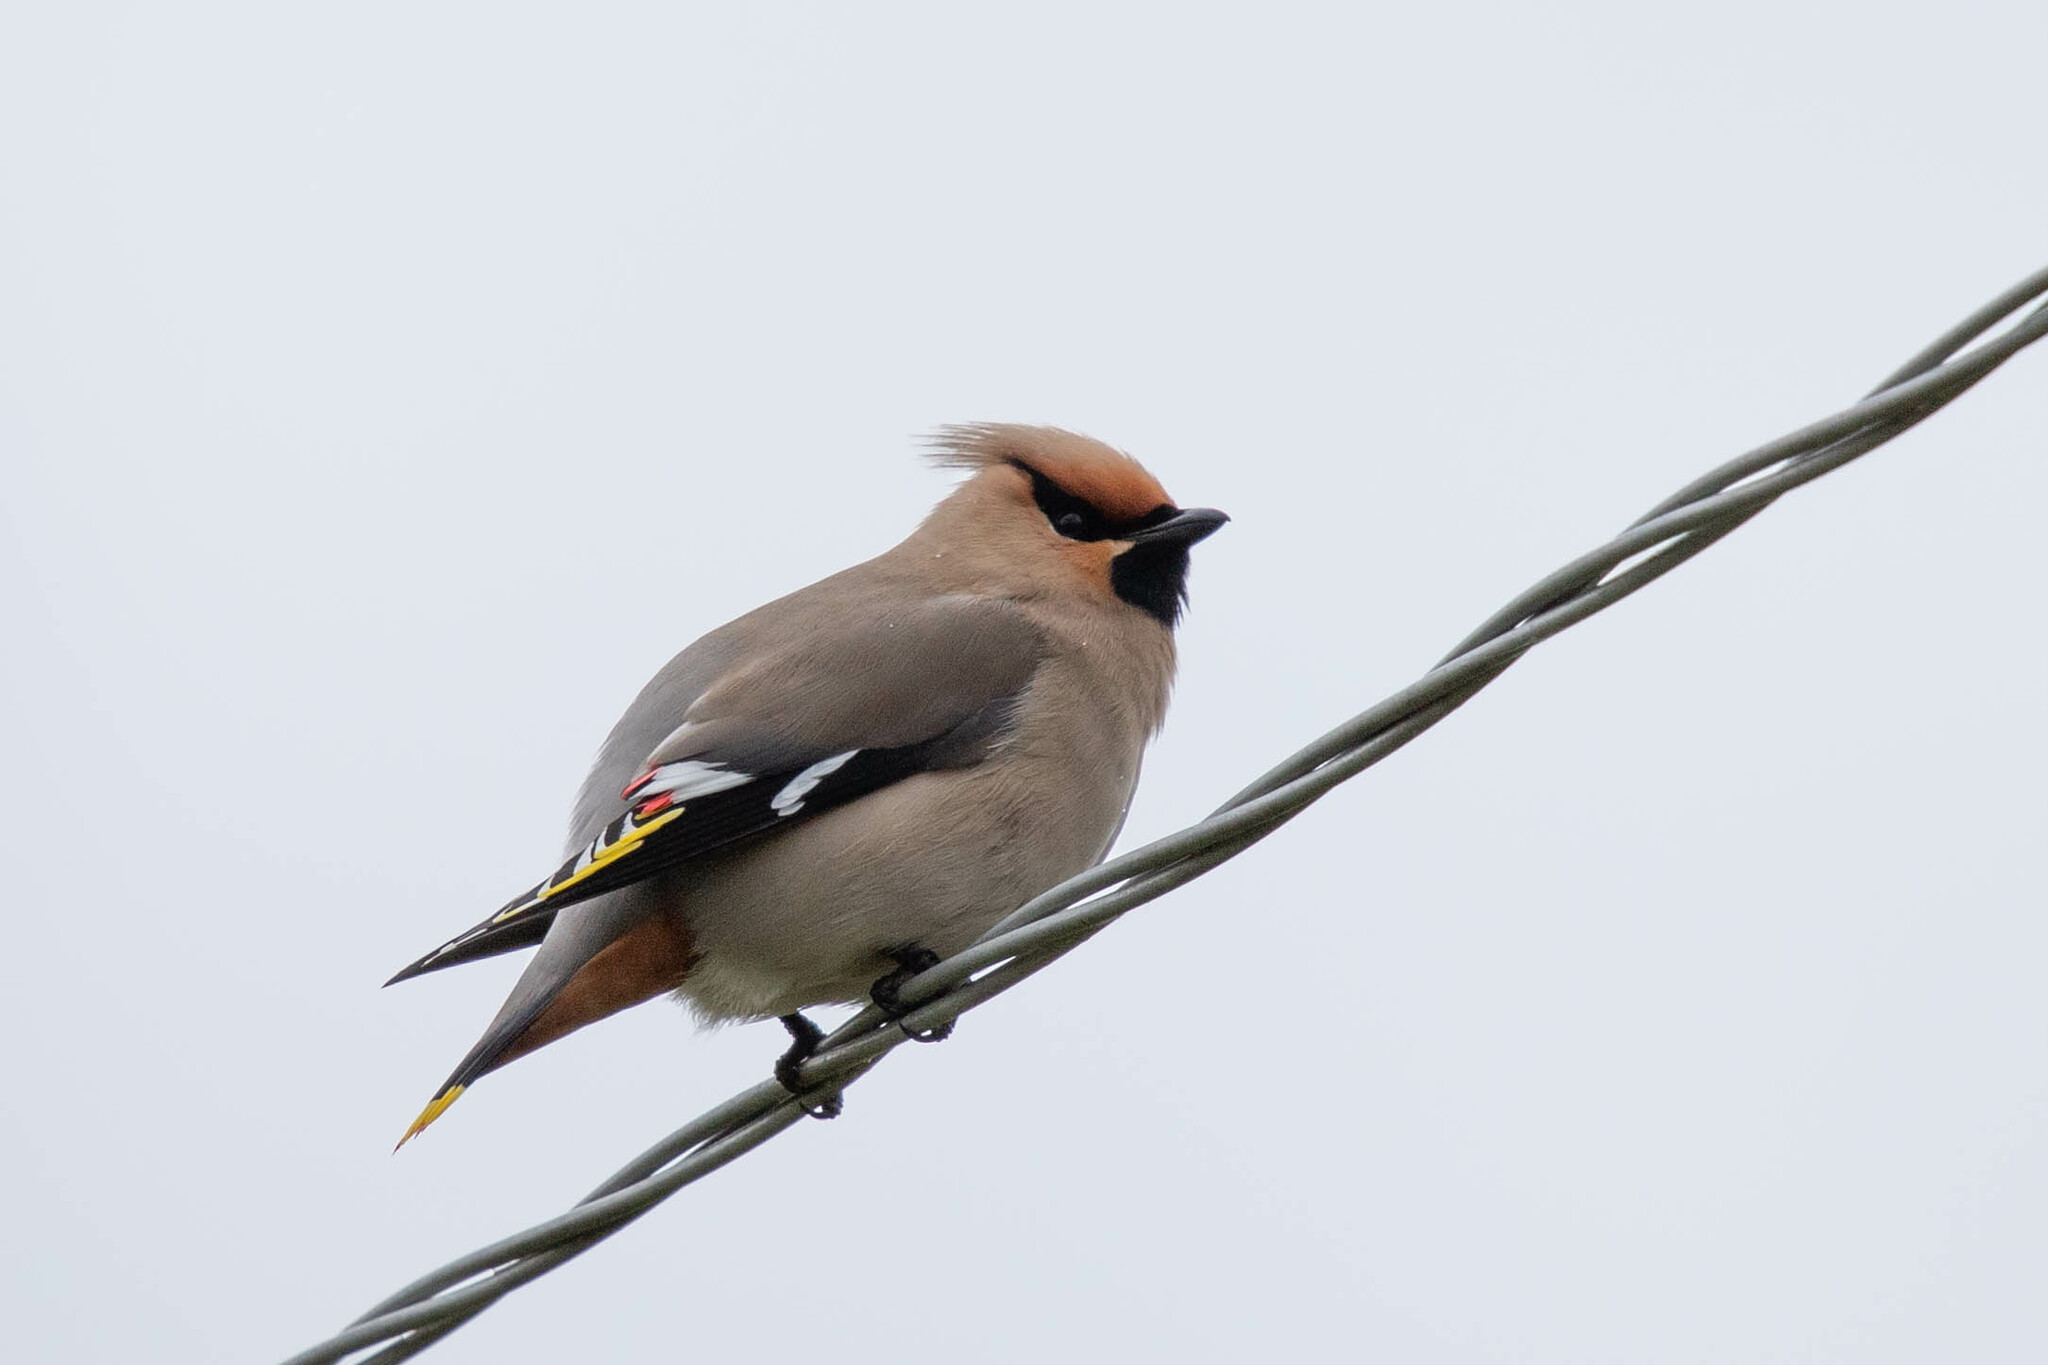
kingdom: Animalia
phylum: Chordata
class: Aves
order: Passeriformes
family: Bombycillidae
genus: Bombycilla
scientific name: Bombycilla garrulus
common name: Bohemian waxwing
